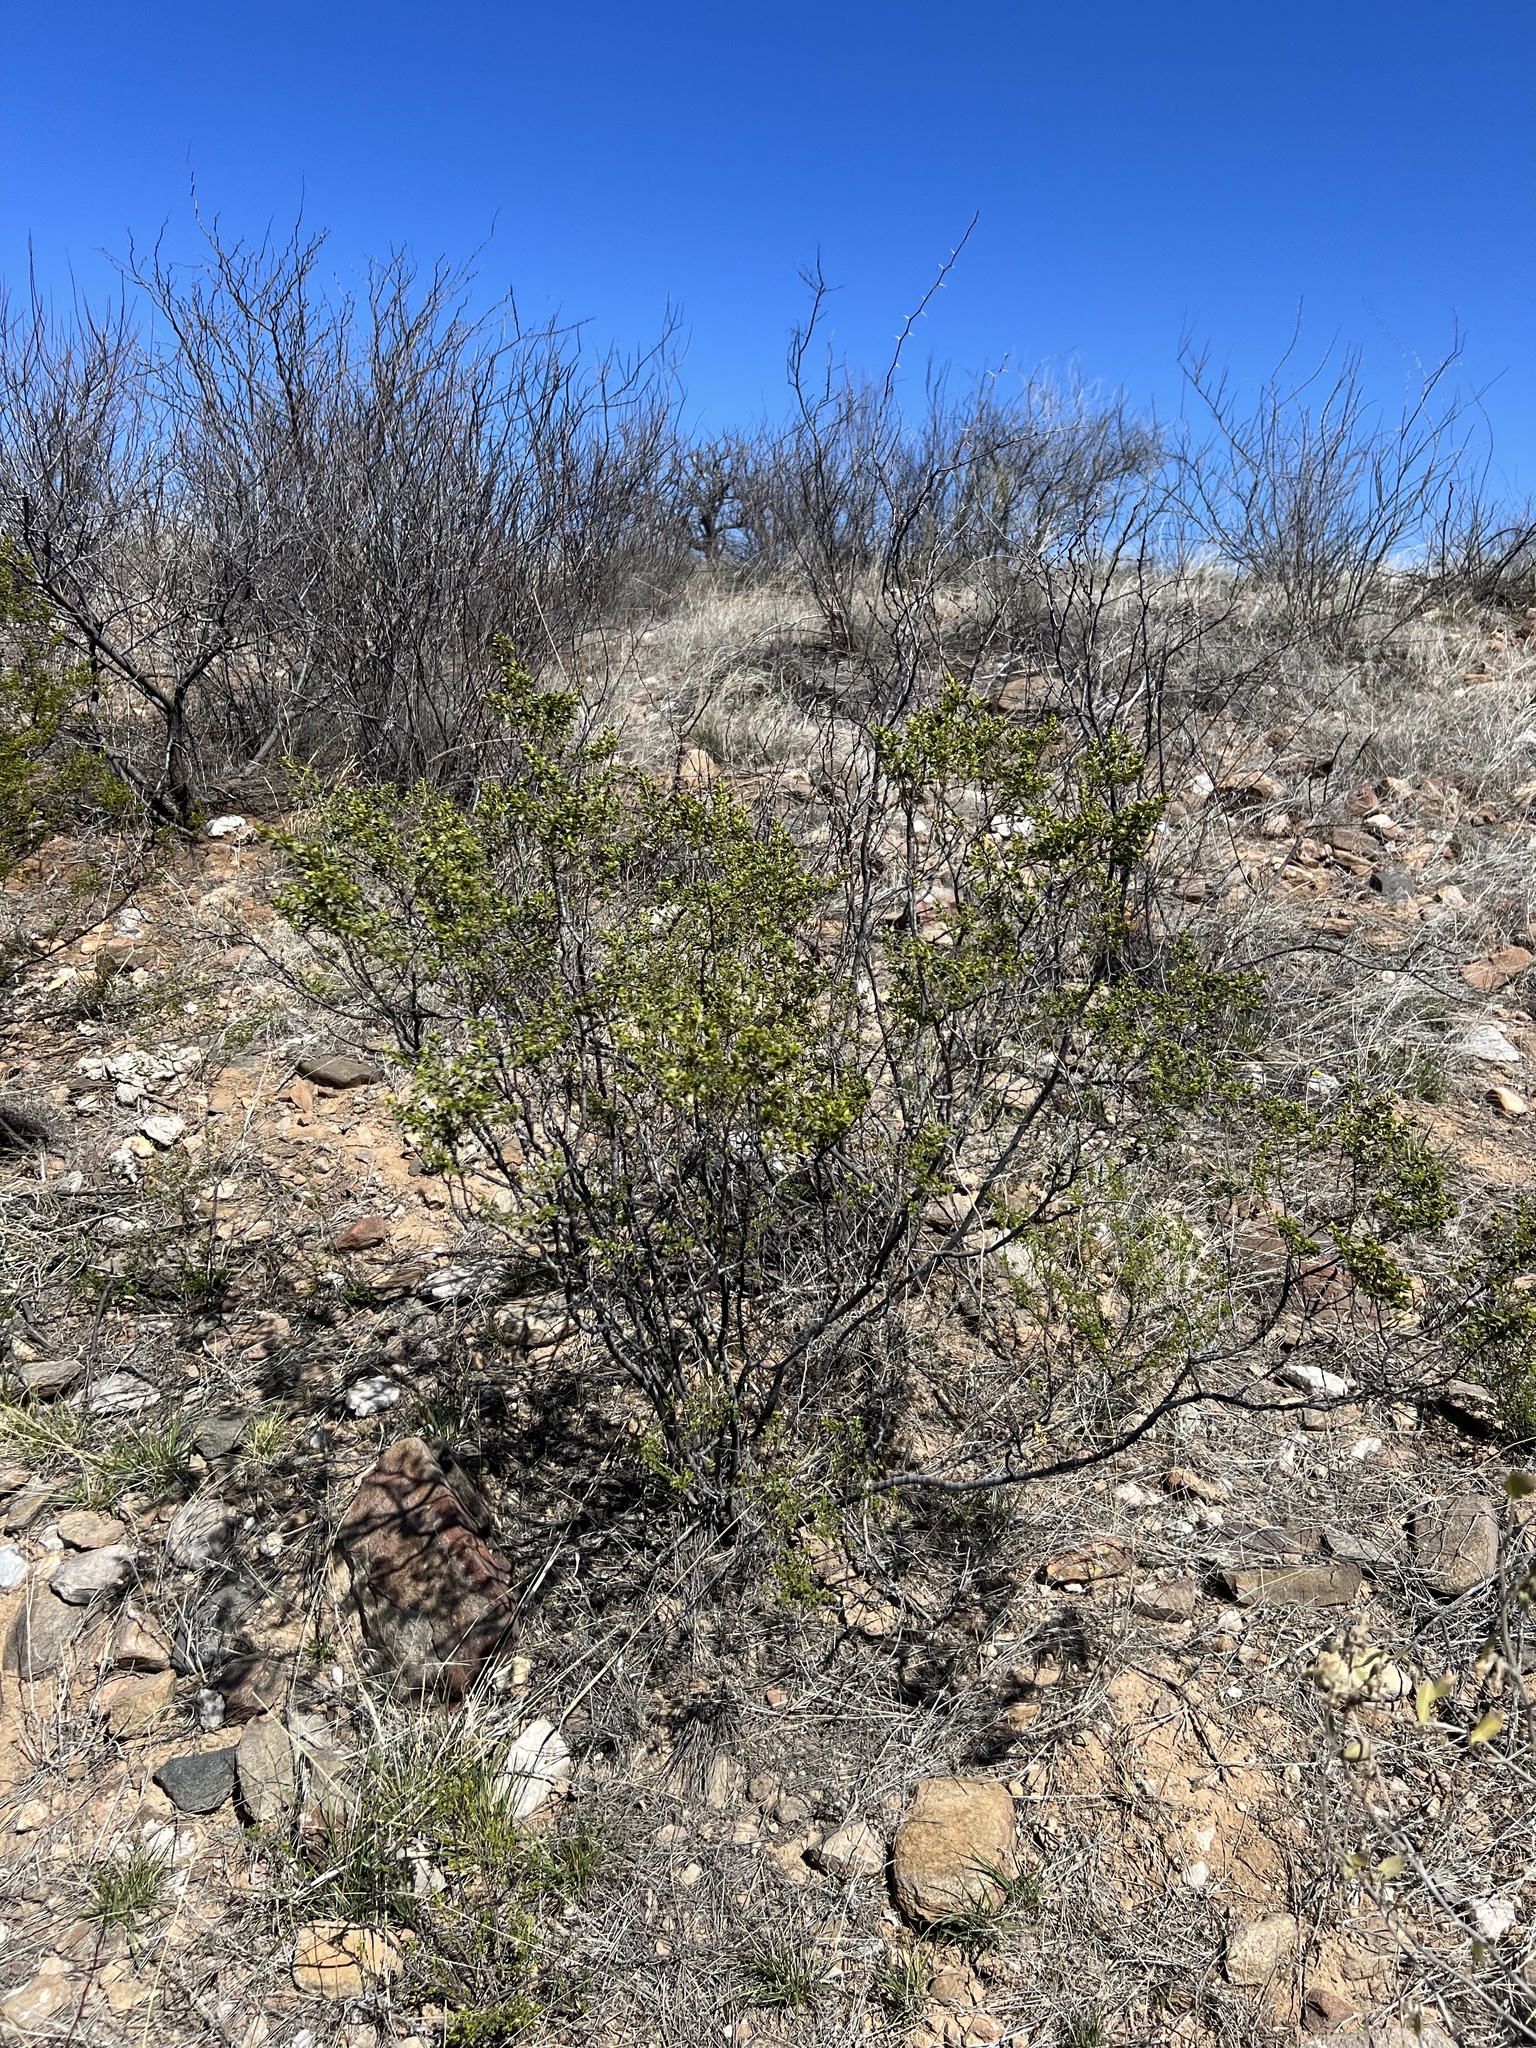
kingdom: Plantae
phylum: Tracheophyta
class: Magnoliopsida
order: Zygophyllales
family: Zygophyllaceae
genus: Larrea
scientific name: Larrea tridentata
